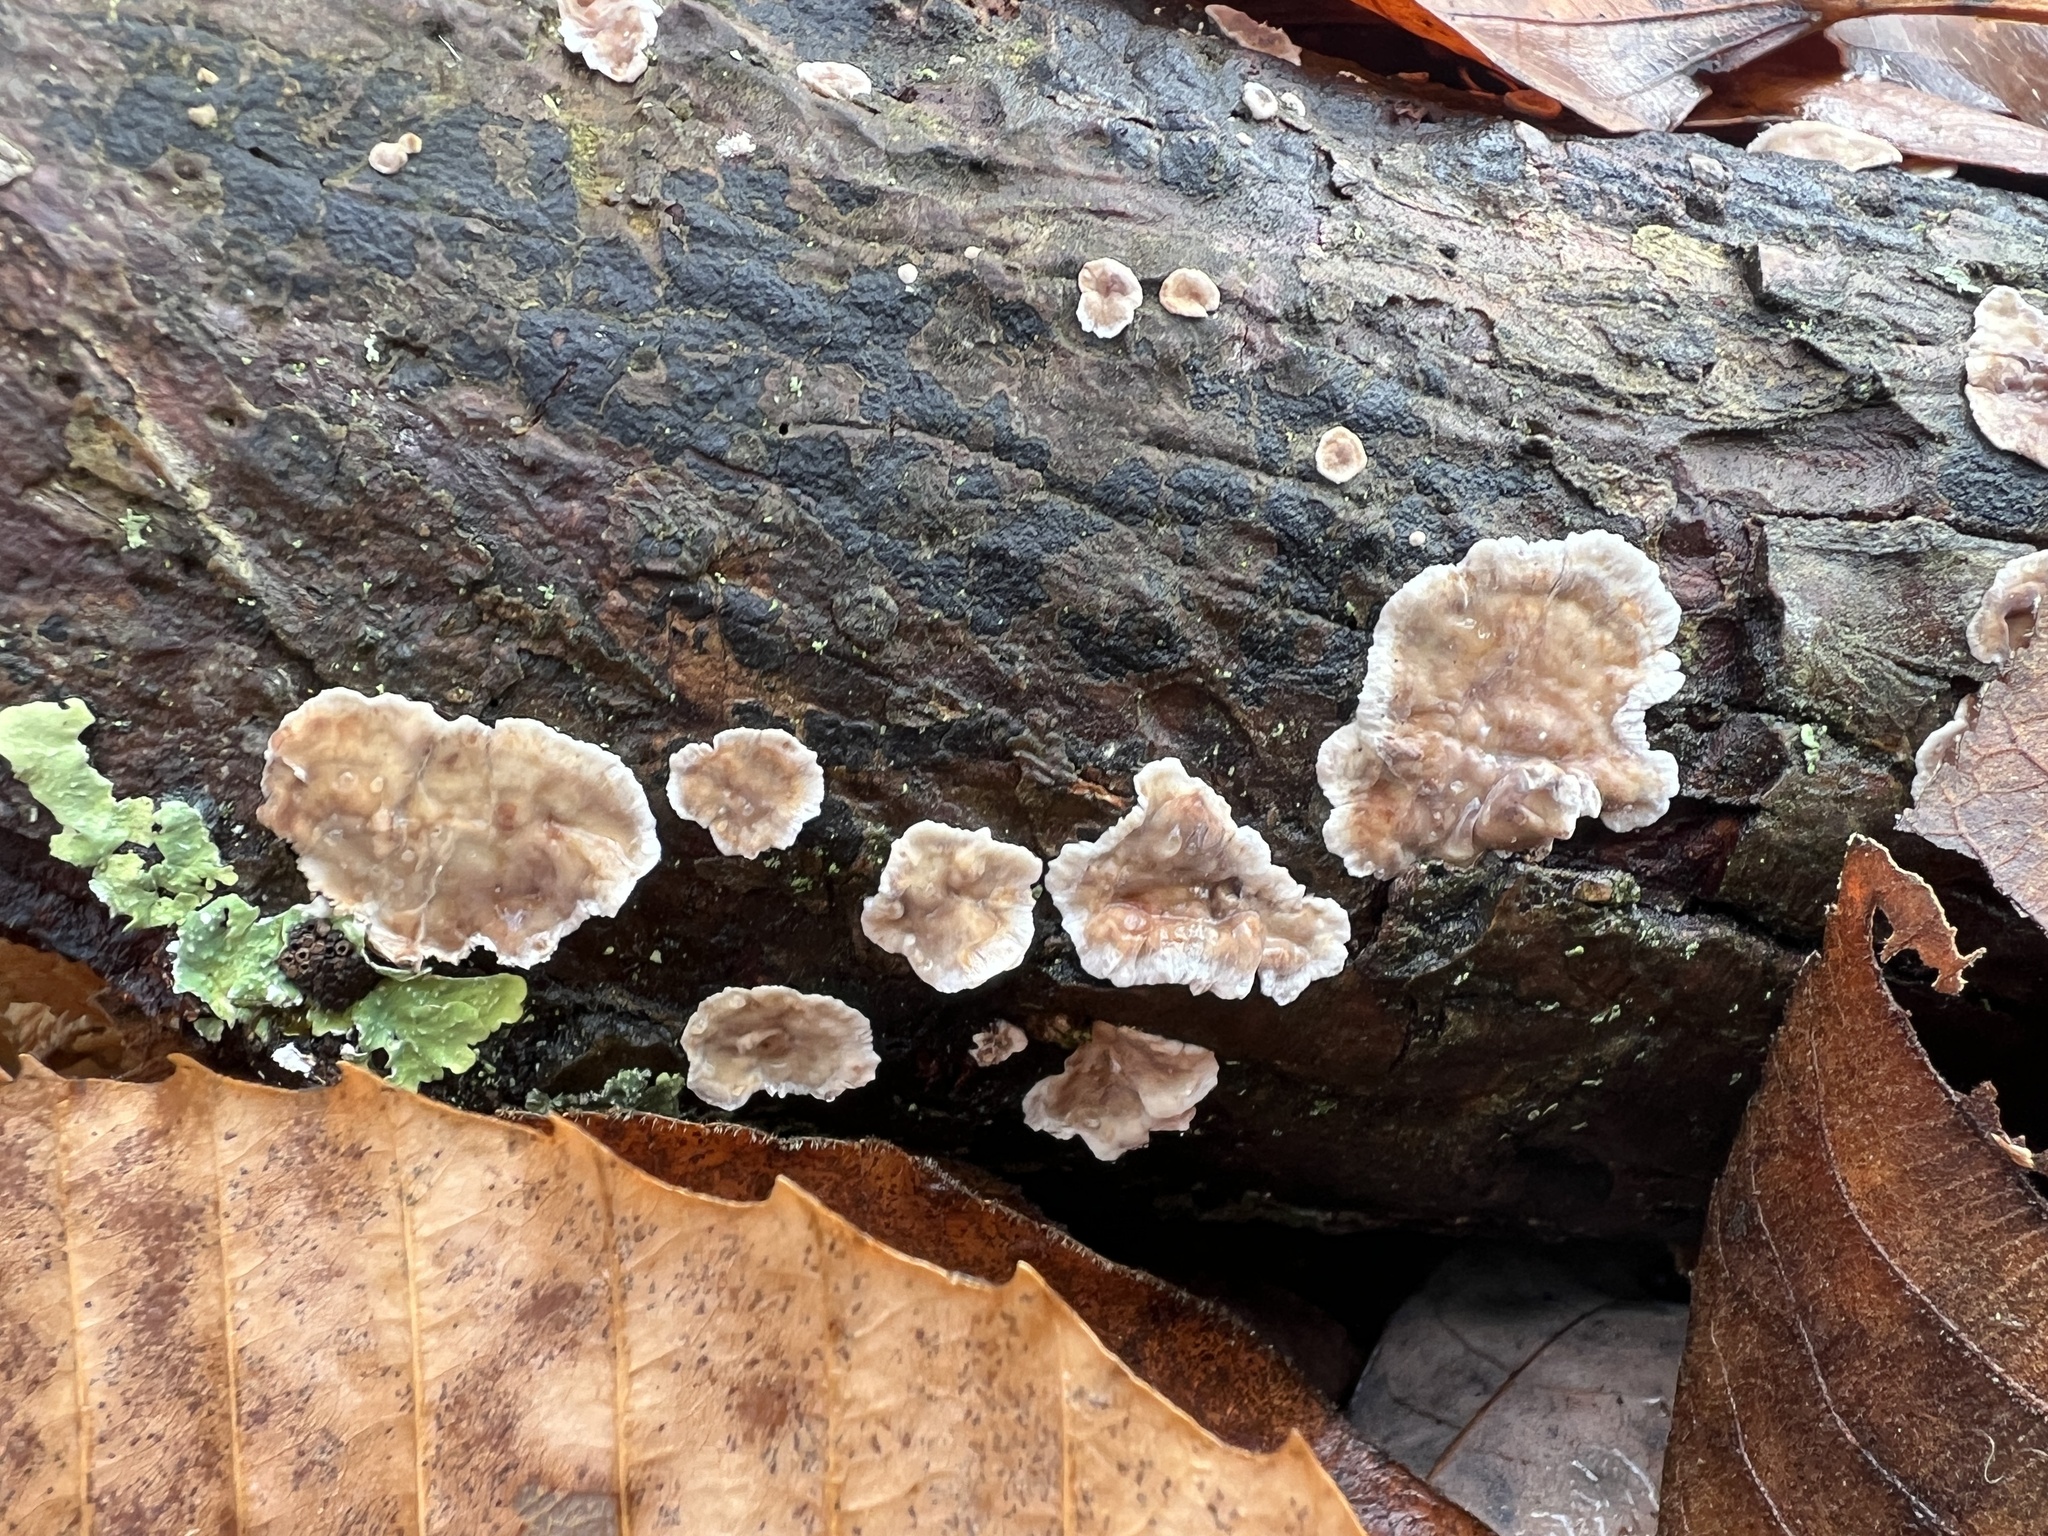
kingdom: Fungi
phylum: Basidiomycota
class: Agaricomycetes
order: Russulales
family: Stereaceae
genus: Stereum
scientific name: Stereum gausapatum
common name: Bleeding oak crust
